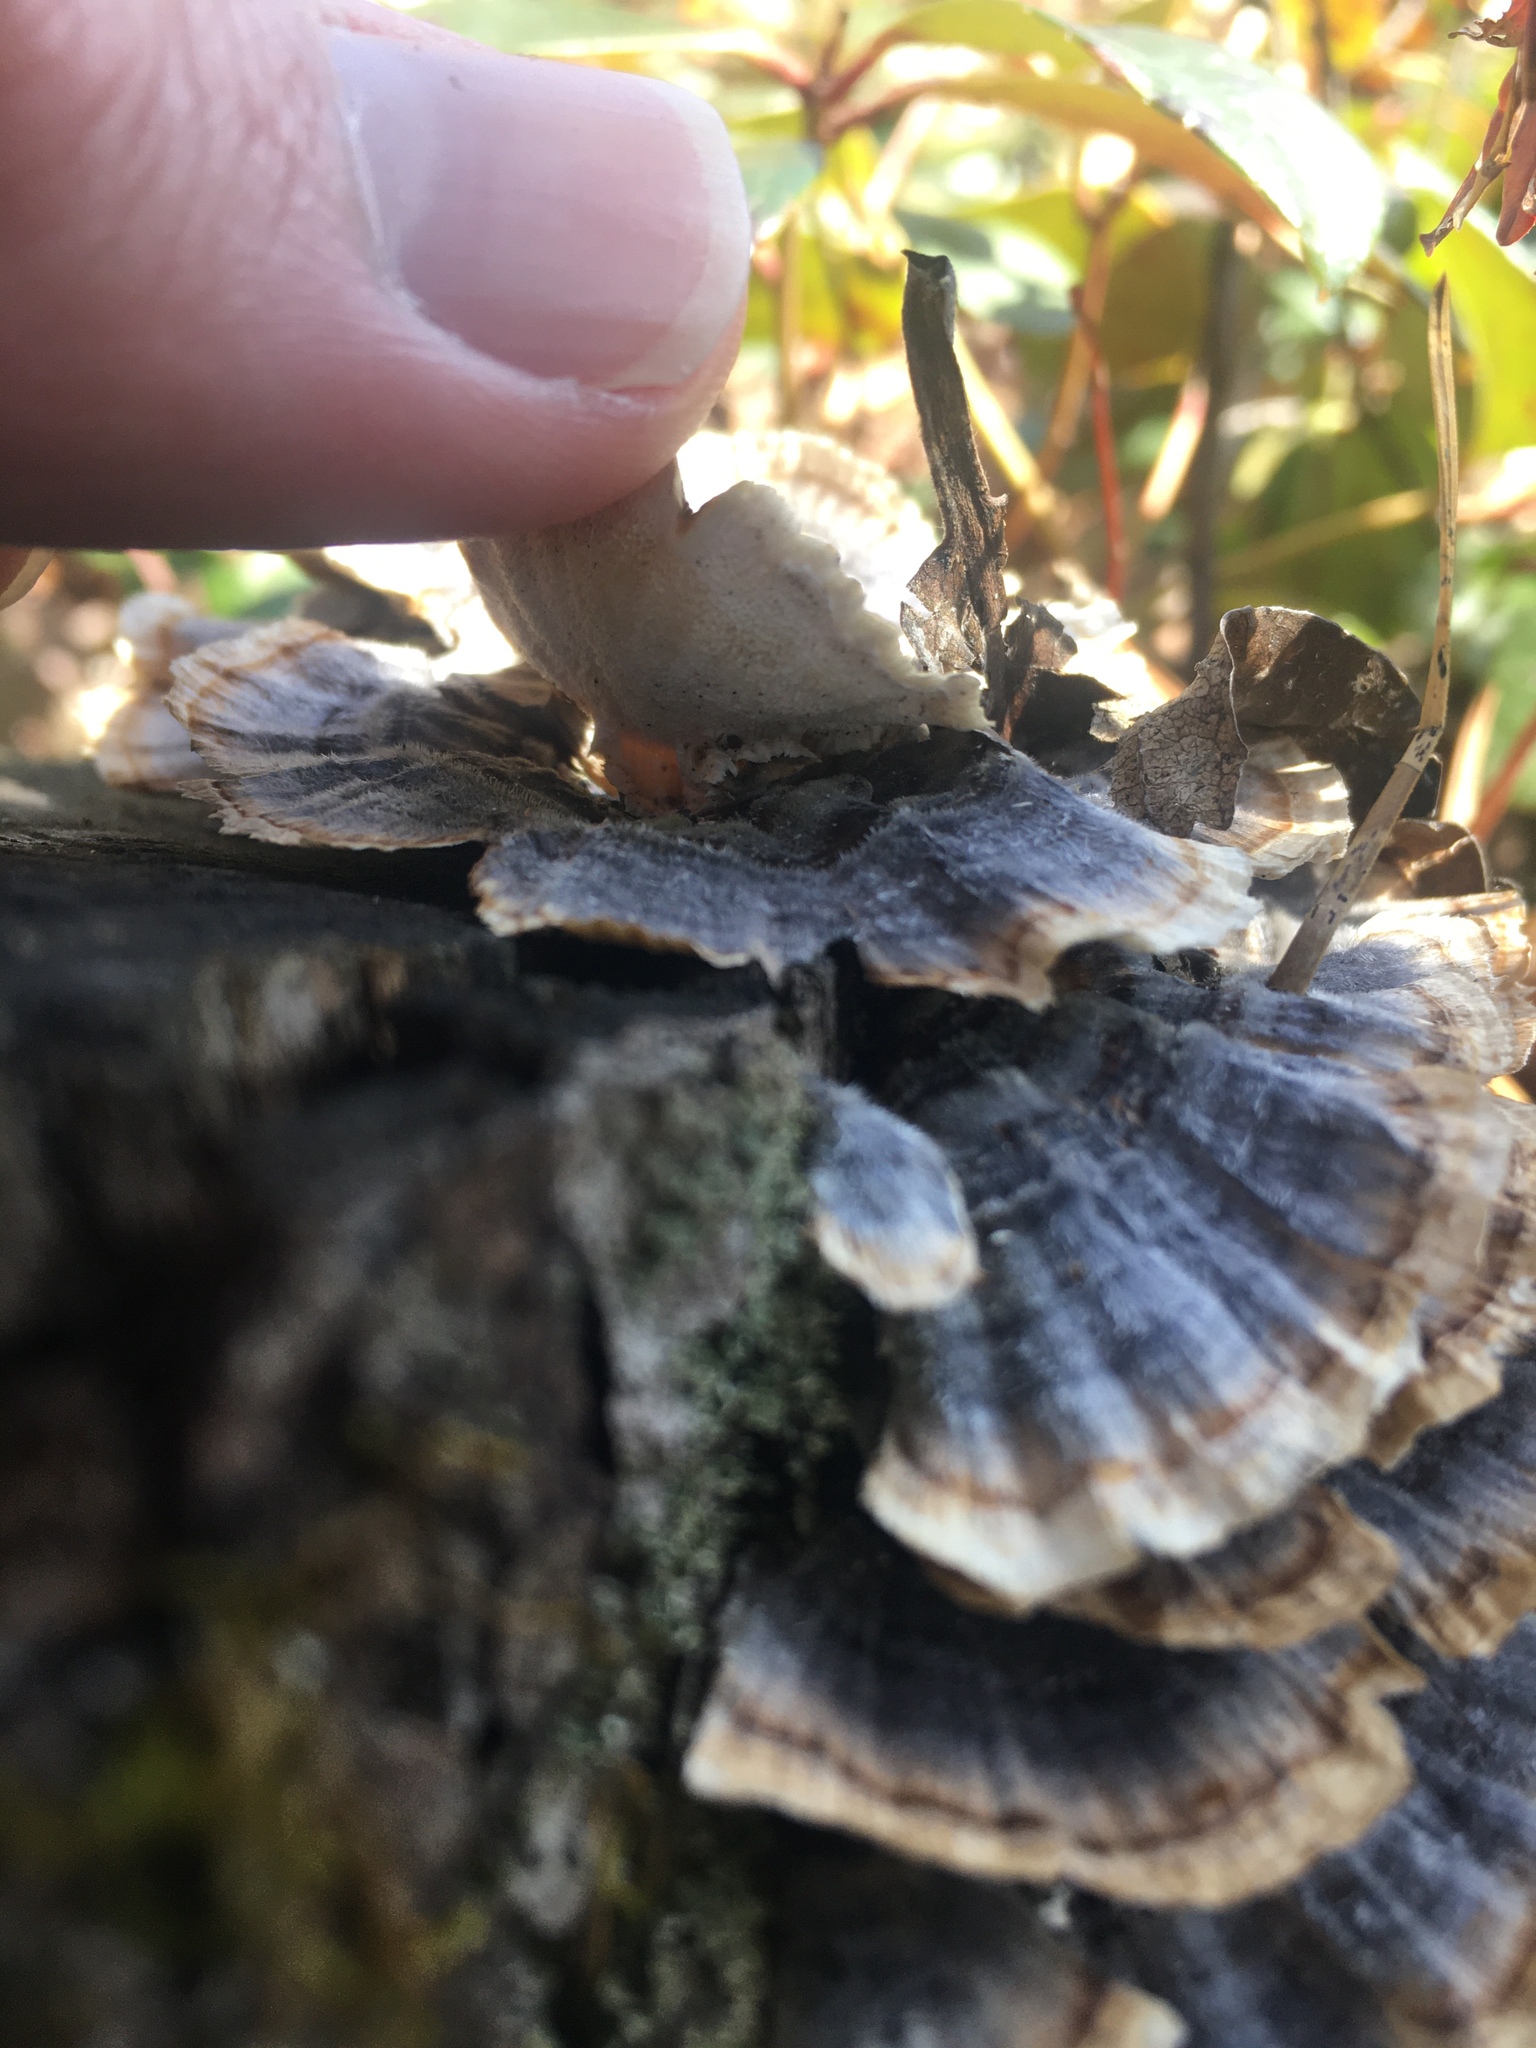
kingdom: Fungi
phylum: Basidiomycota
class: Agaricomycetes
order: Polyporales
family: Polyporaceae
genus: Trametes
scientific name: Trametes versicolor
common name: Turkeytail
